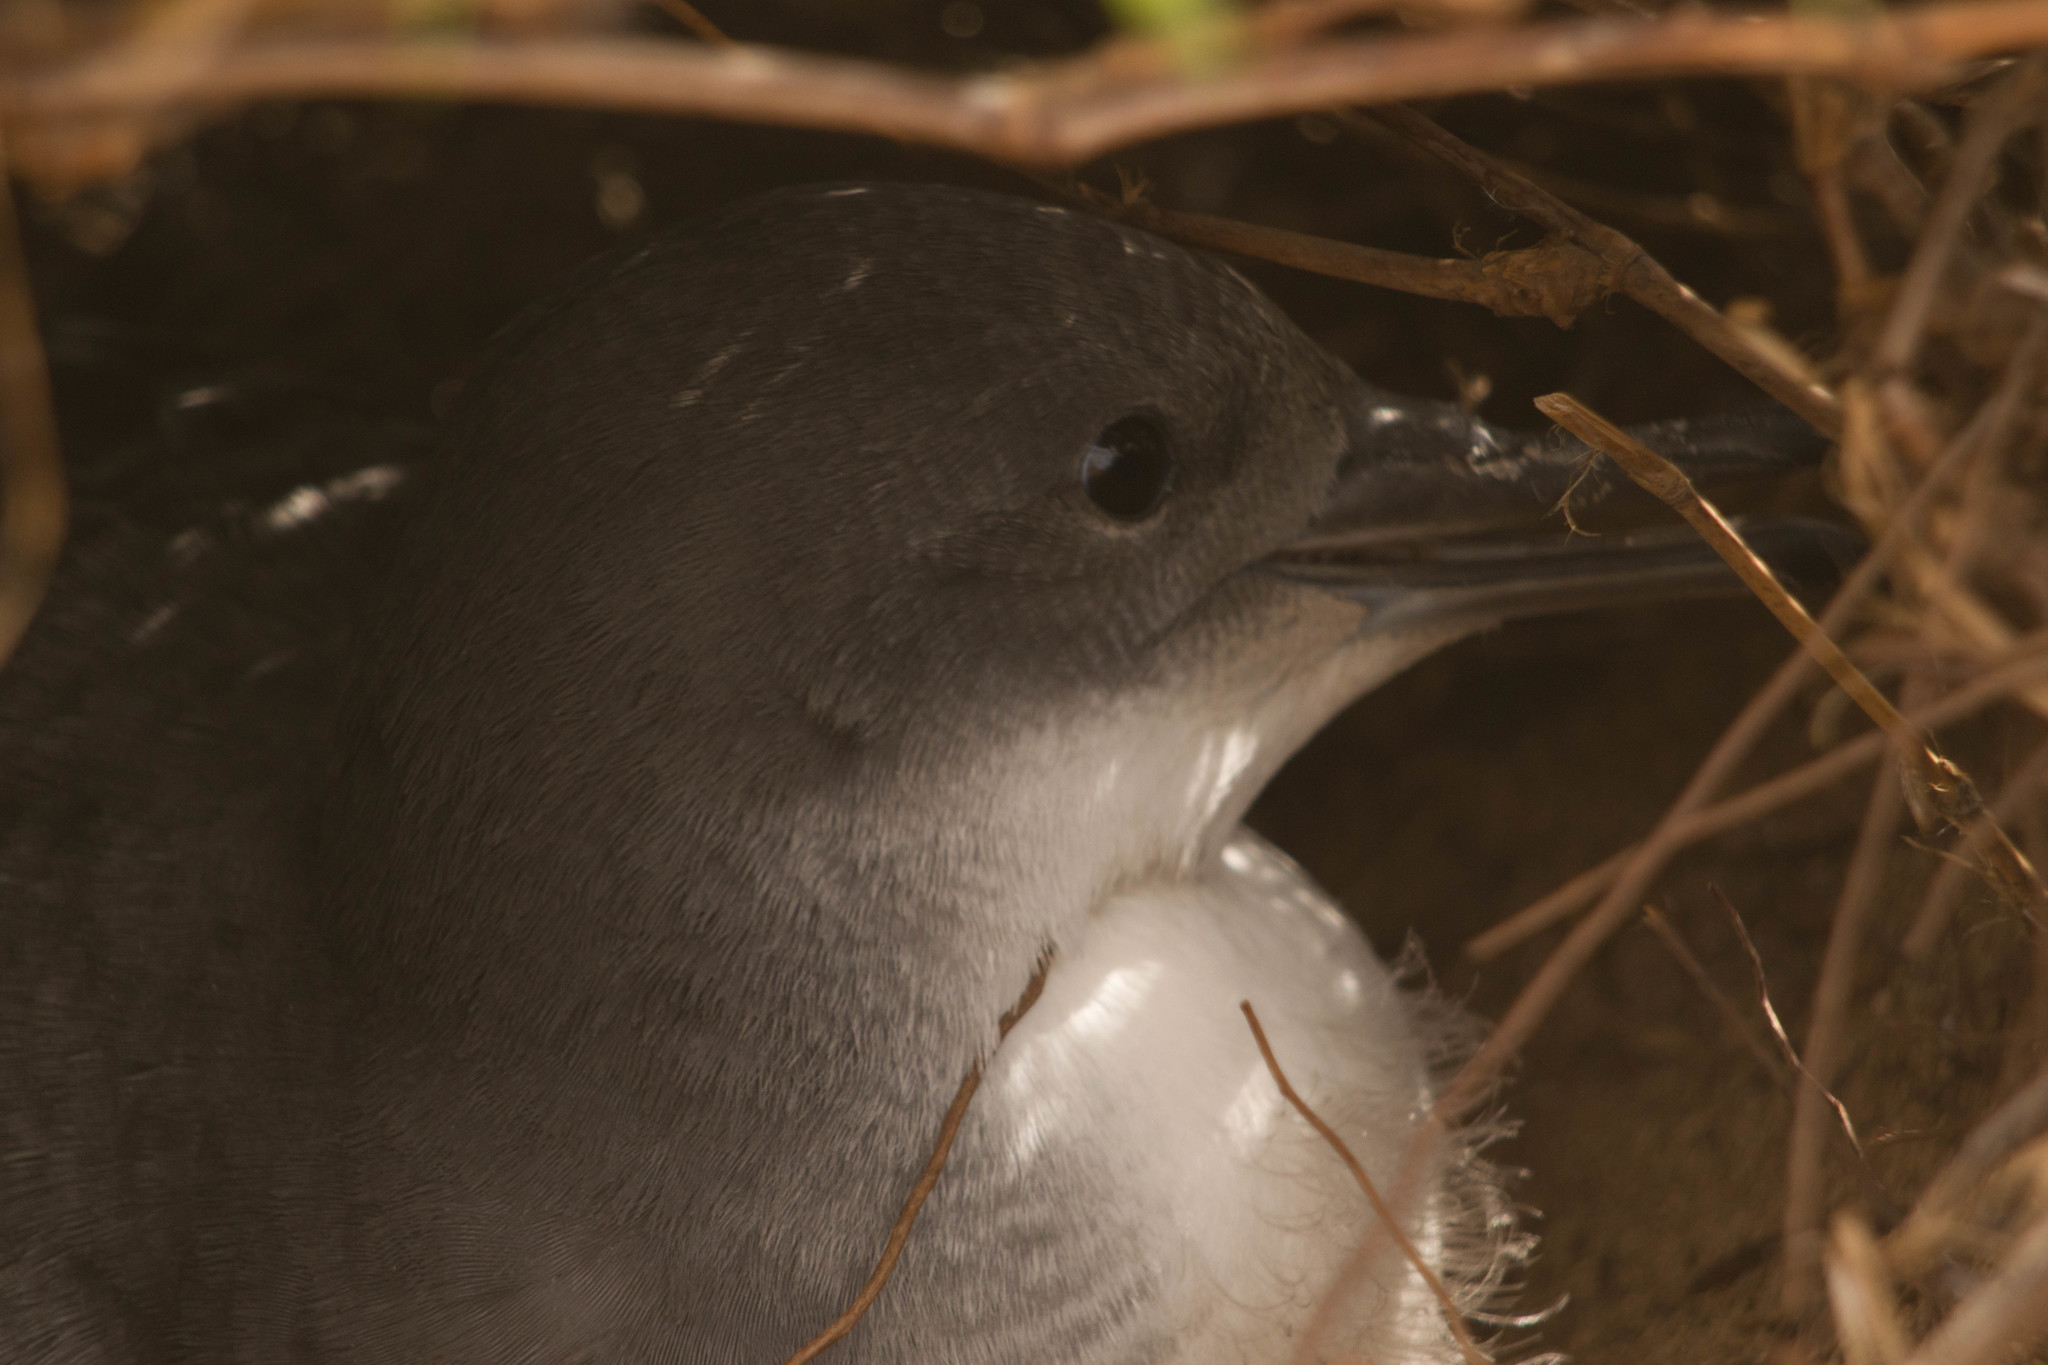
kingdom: Animalia
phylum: Chordata
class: Aves
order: Procellariiformes
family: Procellariidae
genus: Puffinus
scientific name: Puffinus pacificus
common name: Wedge-tailed shearwater
